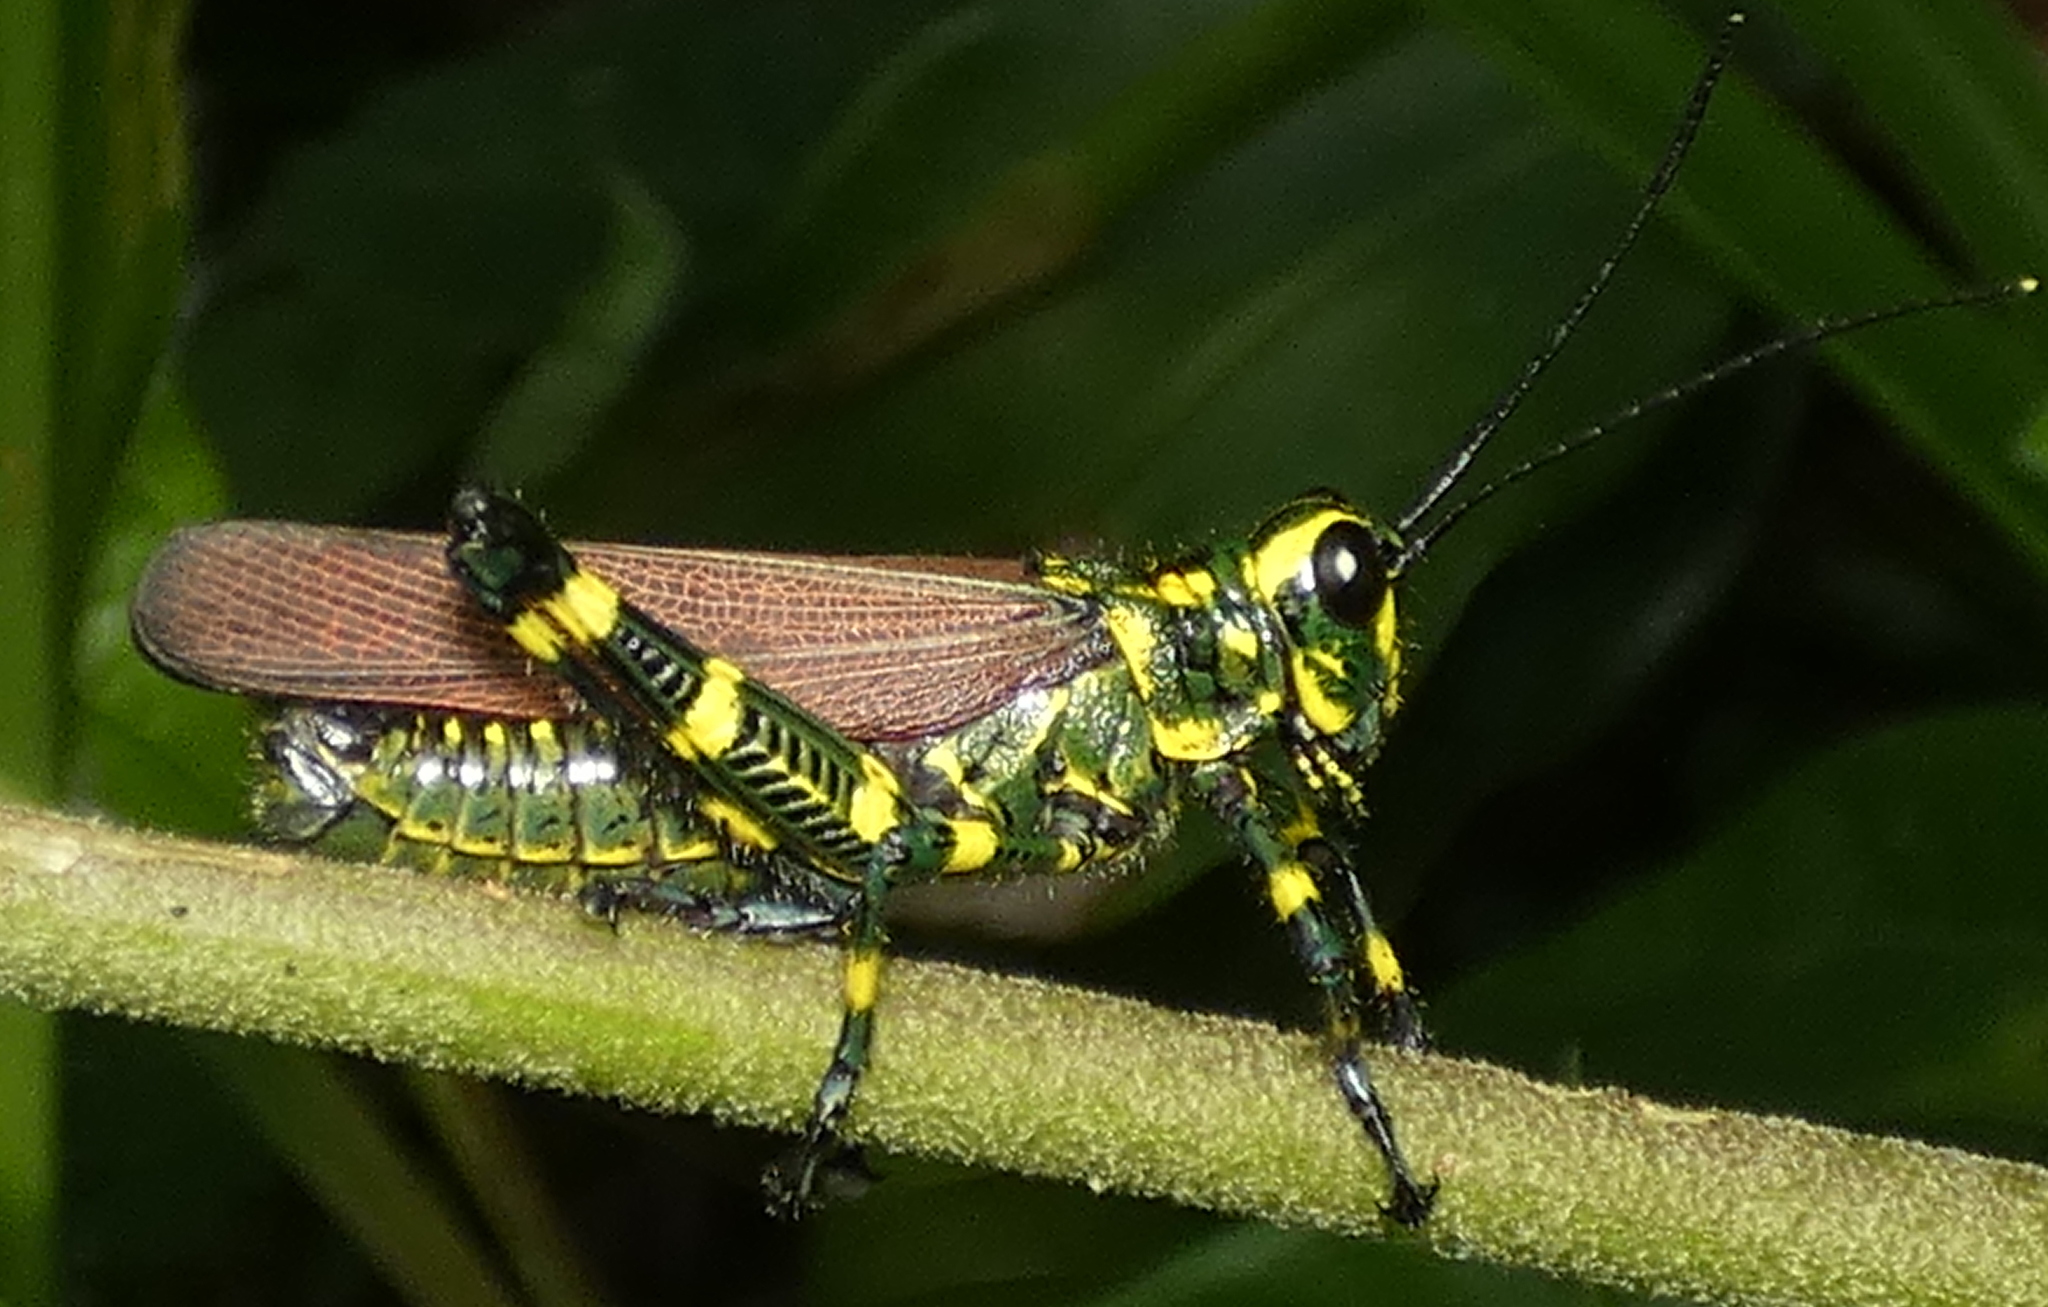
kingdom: Animalia
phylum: Arthropoda
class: Insecta
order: Orthoptera
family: Romaleidae
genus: Chromacris
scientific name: Chromacris speciosa
